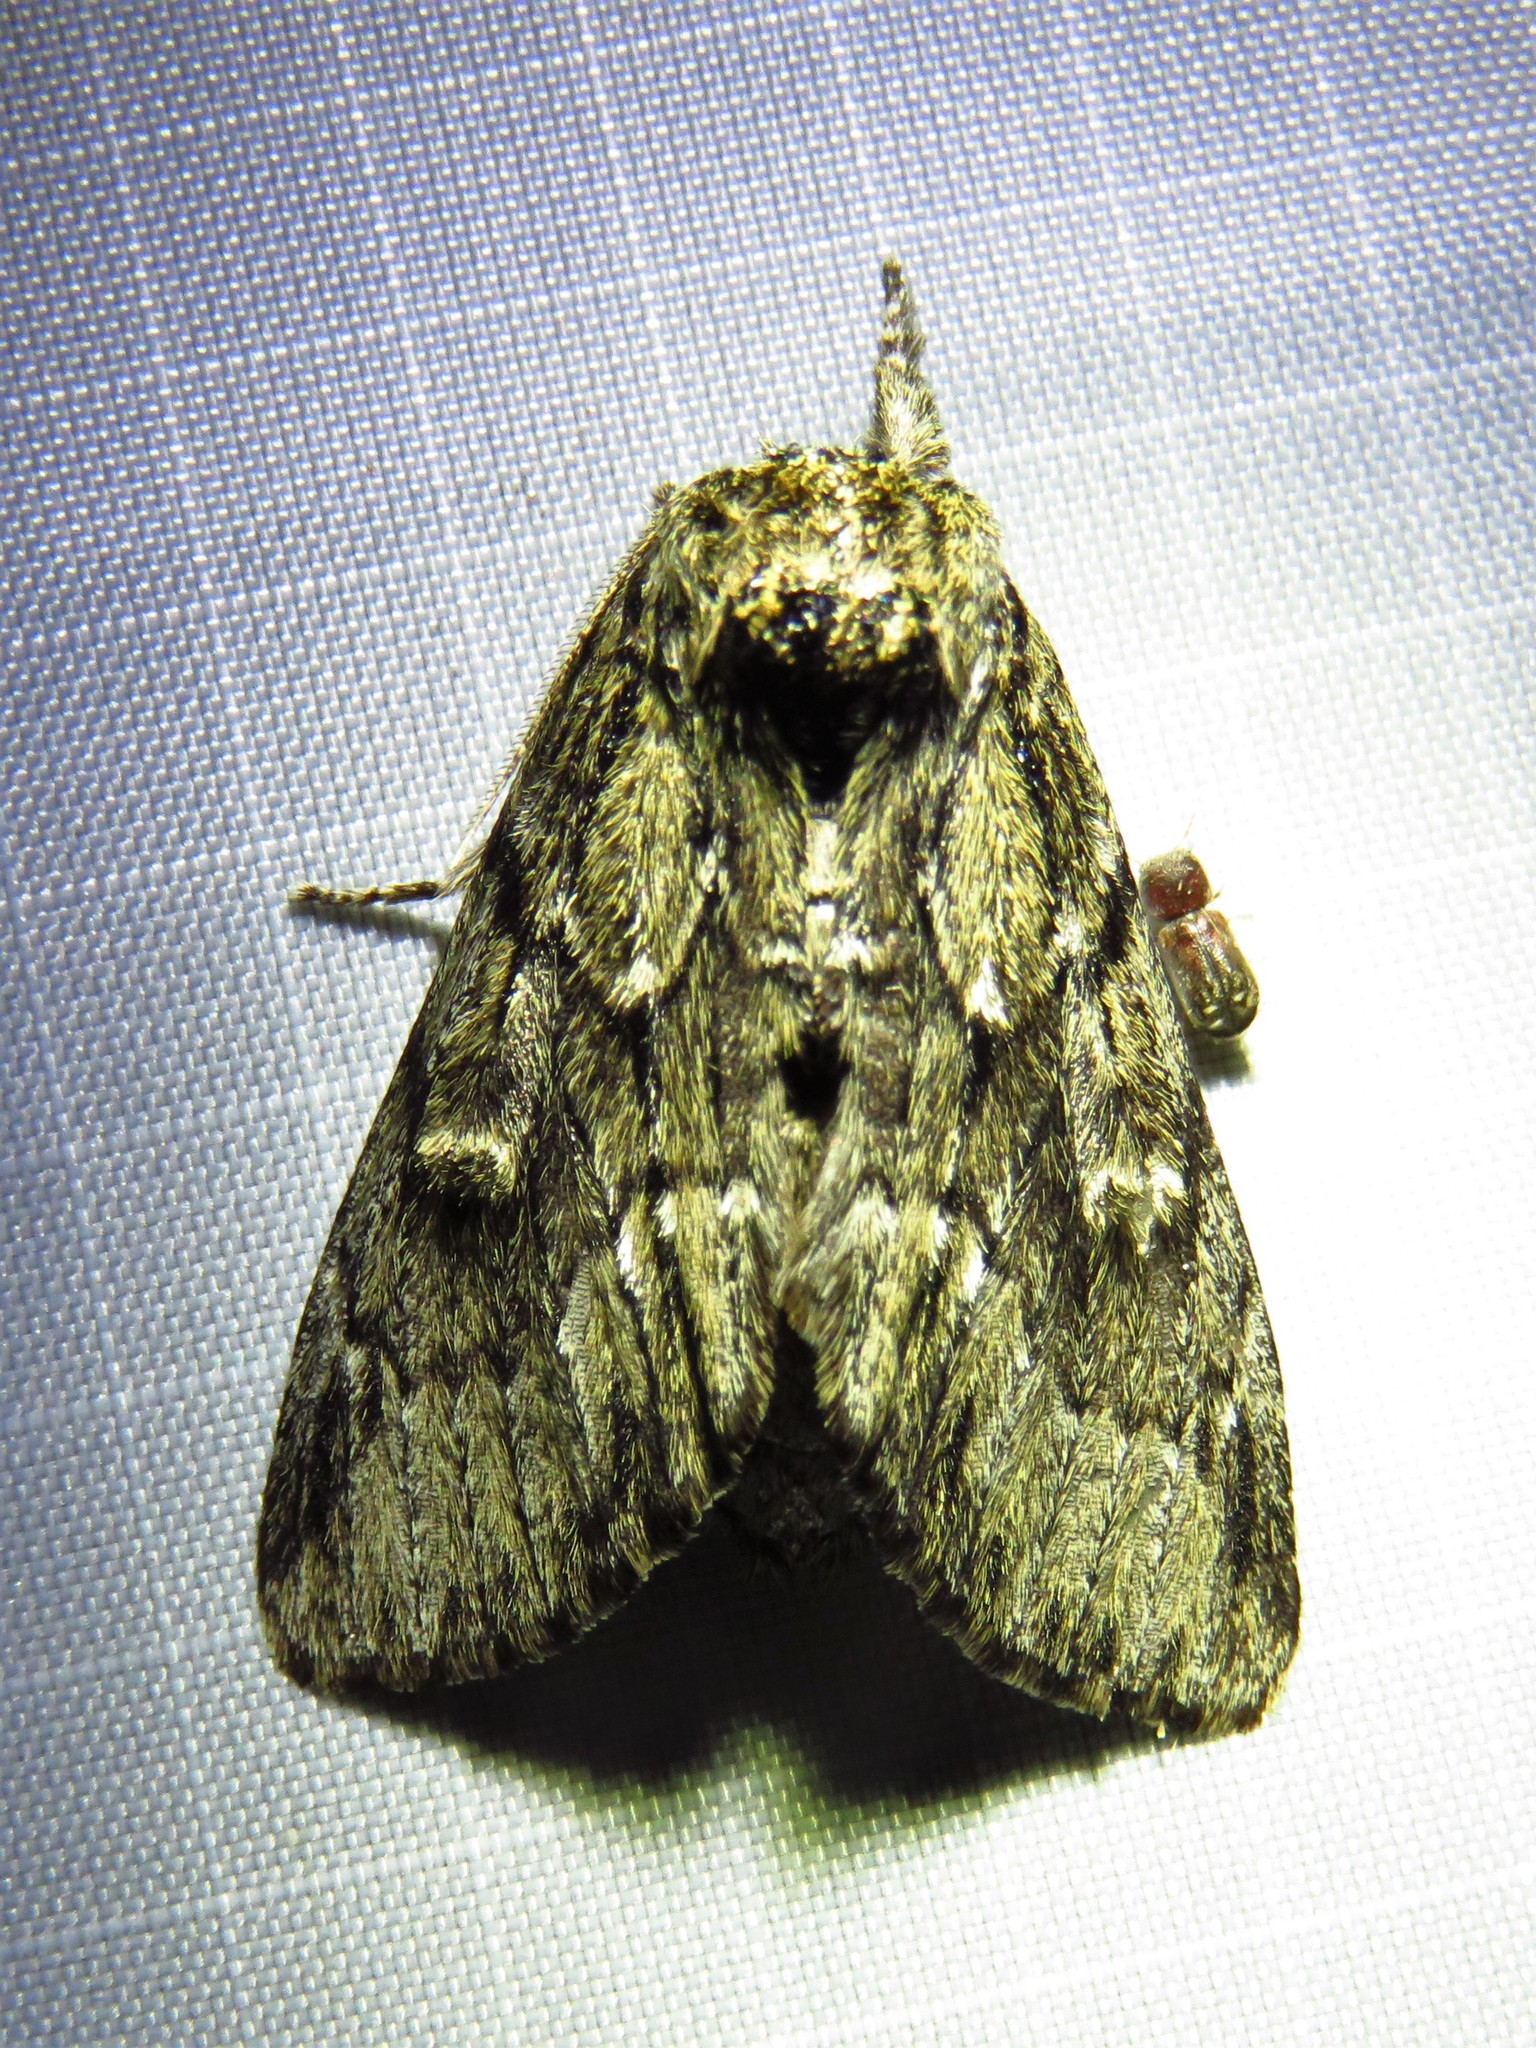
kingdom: Animalia
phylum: Arthropoda
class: Insecta
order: Lepidoptera
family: Notodontidae
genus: Paraeschra
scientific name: Paraeschra georgica
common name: Georgian prominent
